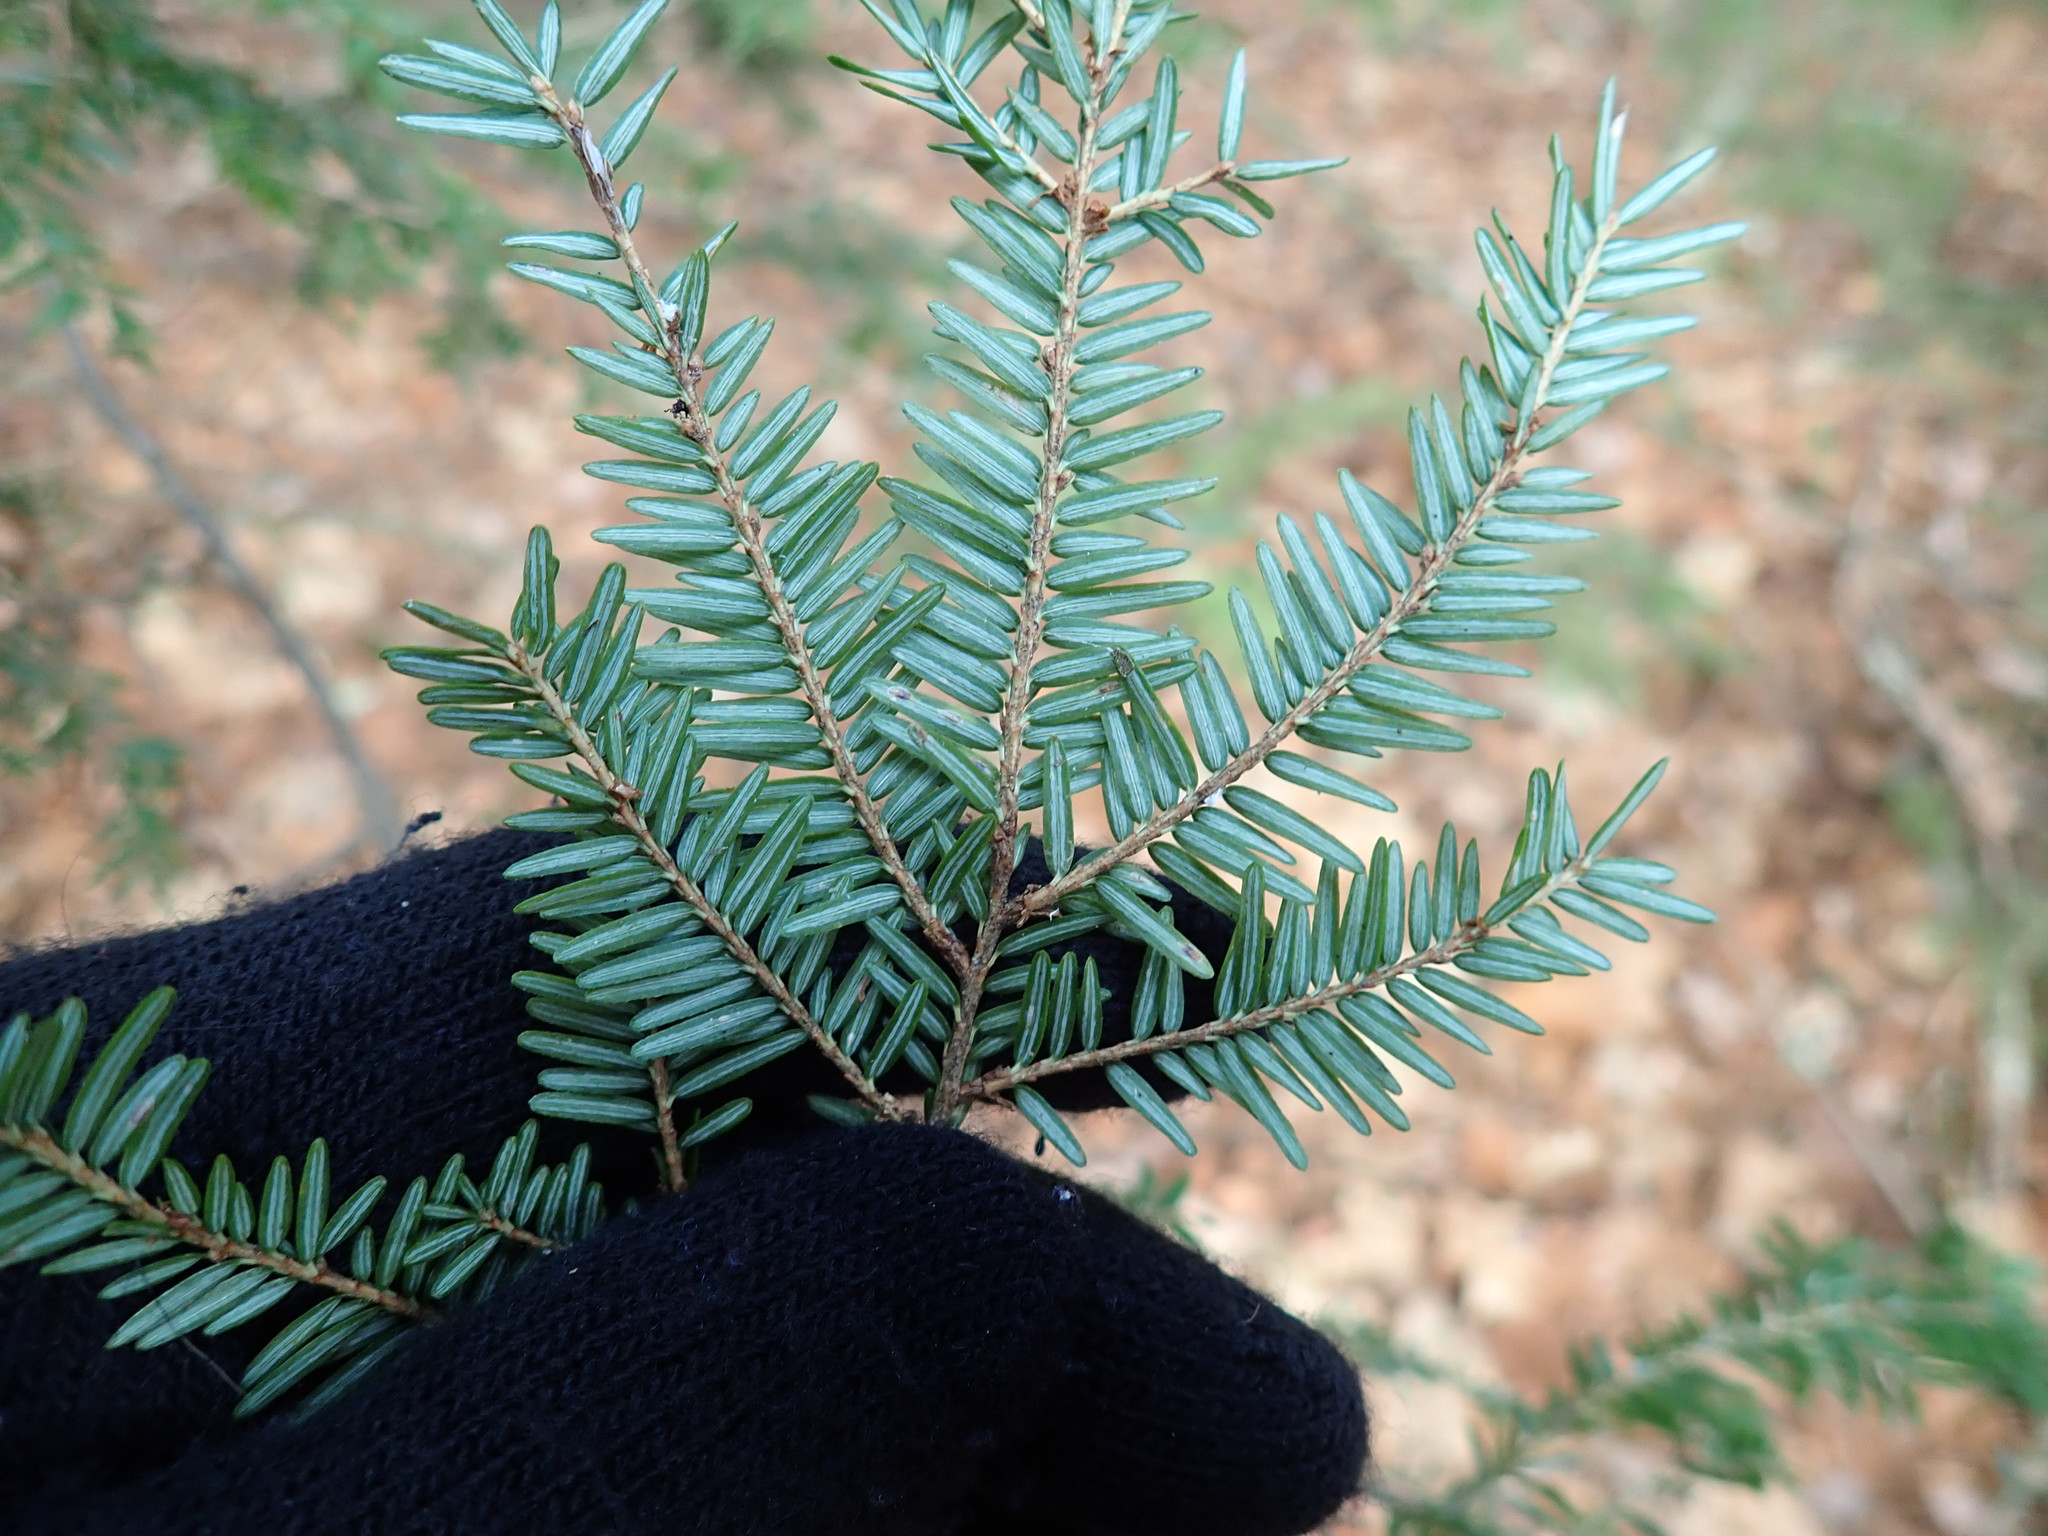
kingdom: Plantae
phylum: Tracheophyta
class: Pinopsida
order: Pinales
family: Pinaceae
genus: Tsuga
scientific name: Tsuga canadensis
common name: Eastern hemlock
